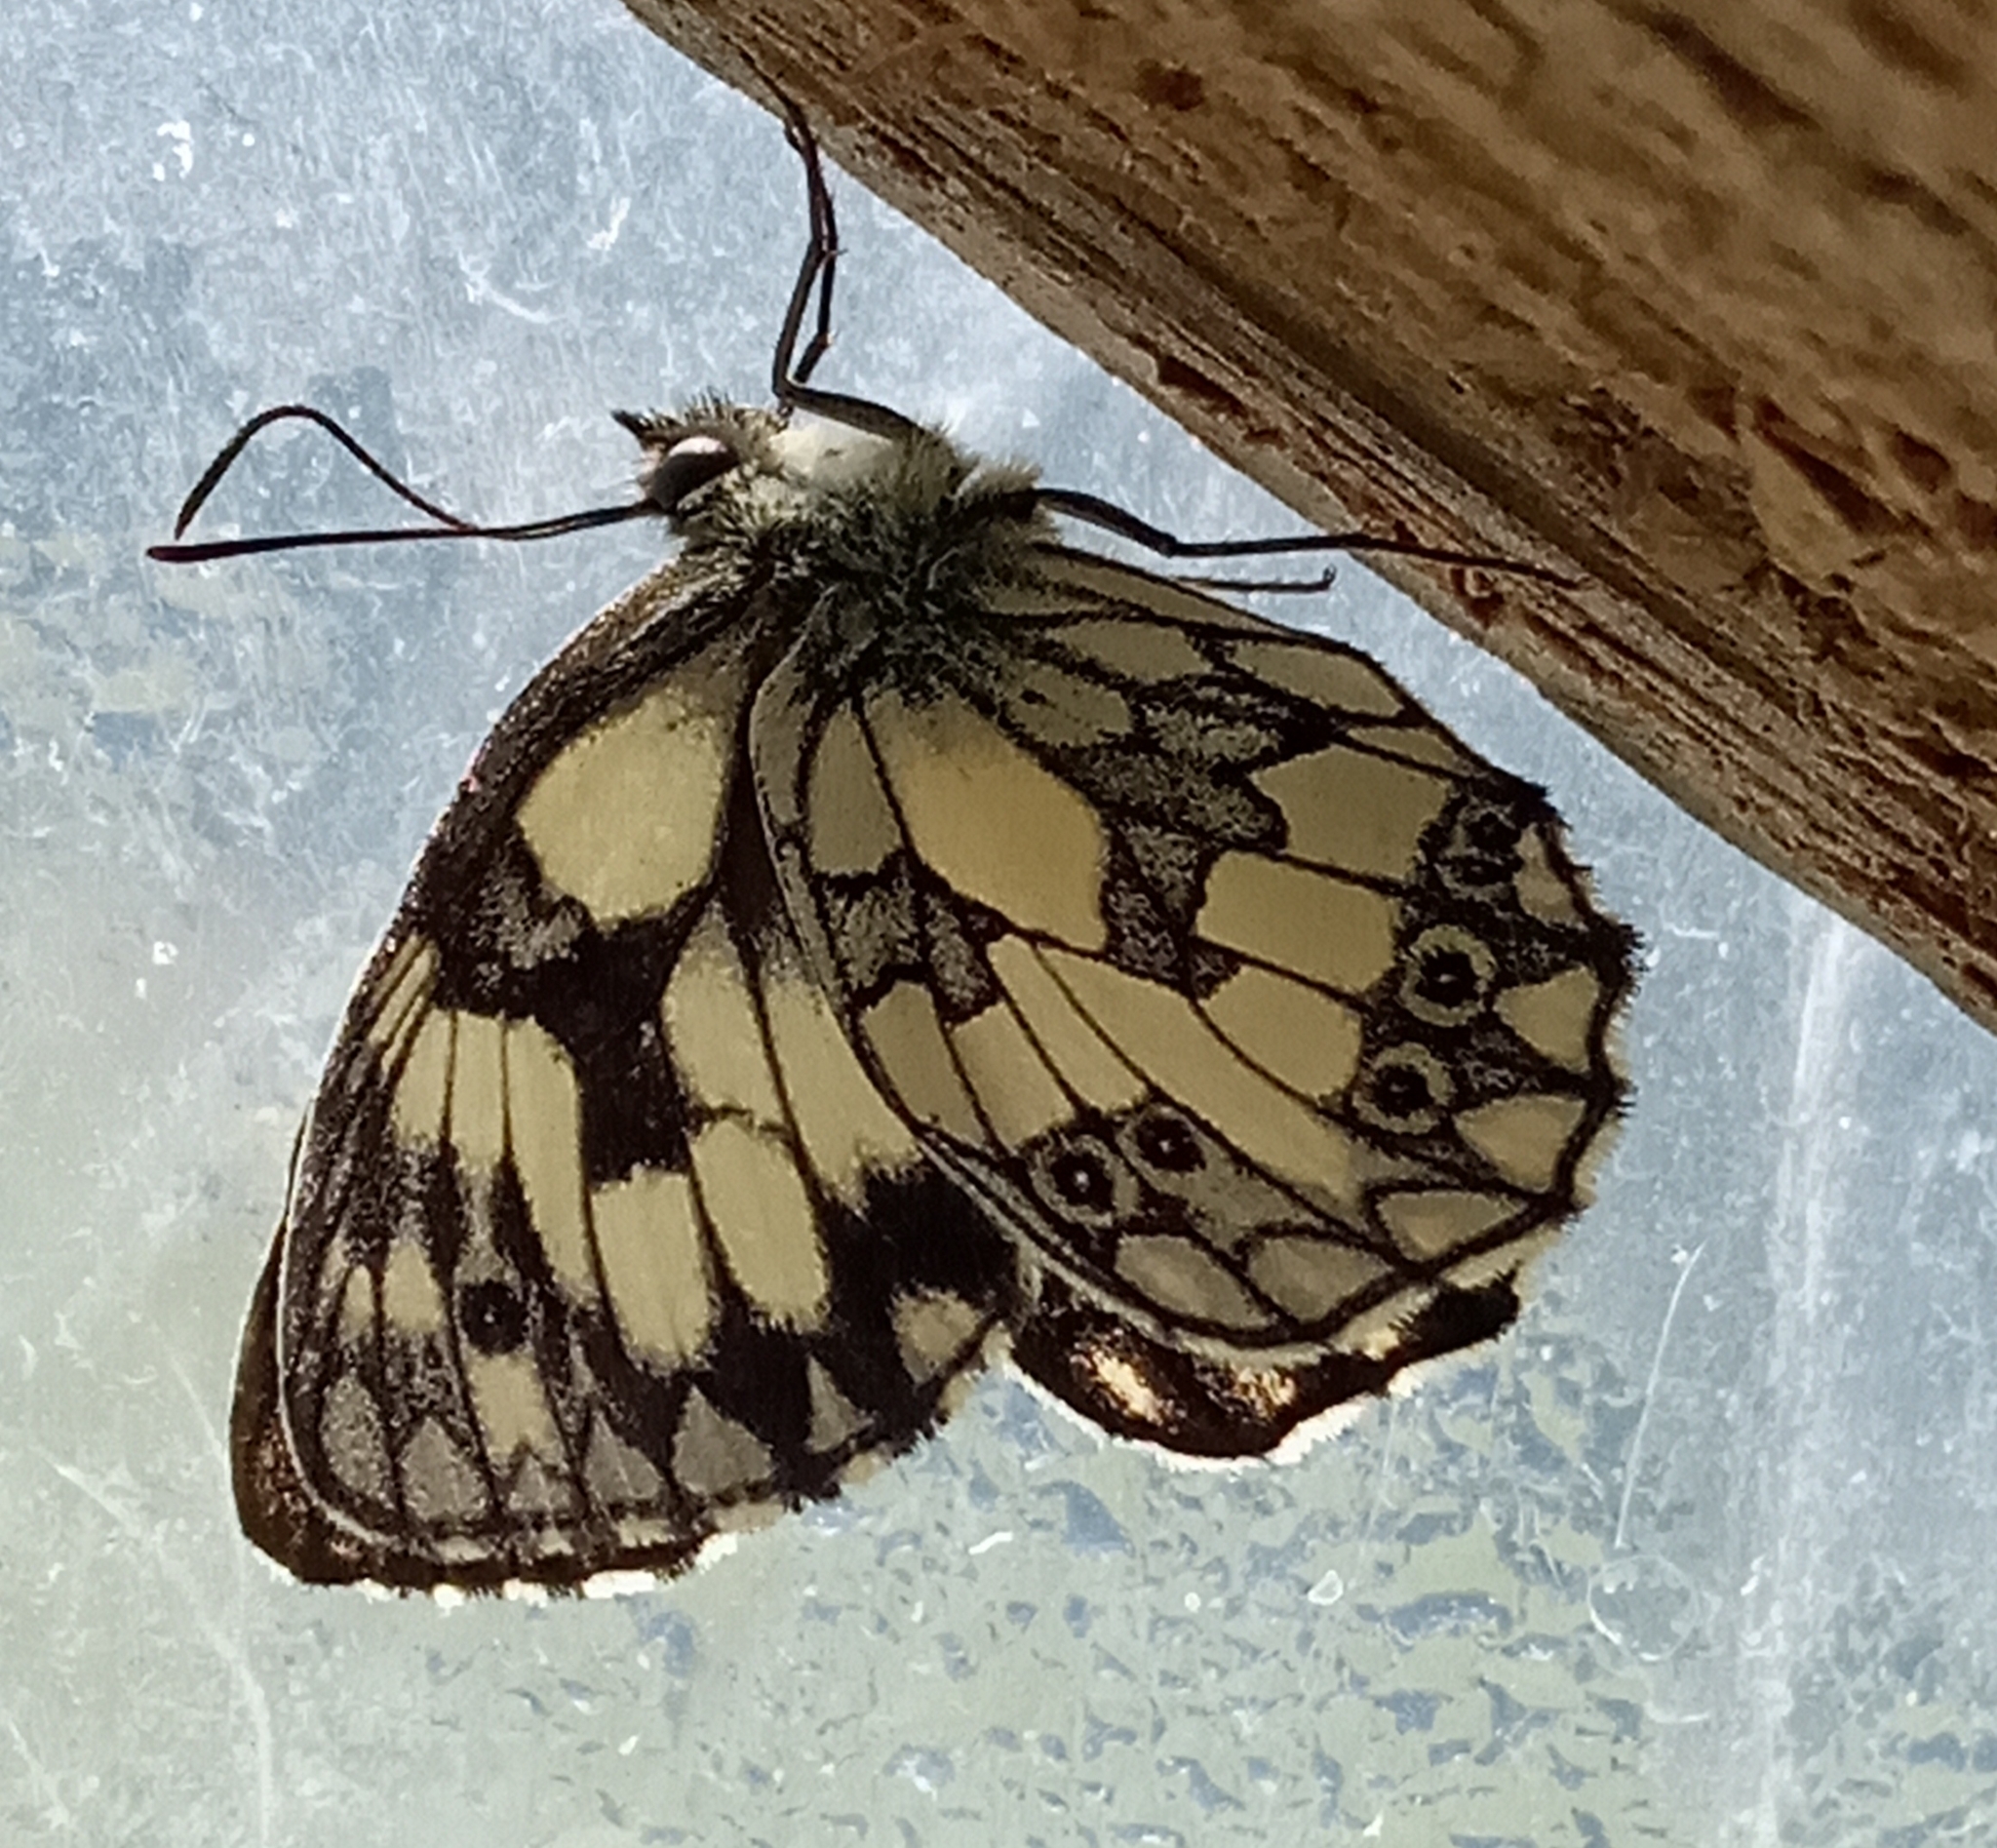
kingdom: Animalia
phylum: Arthropoda
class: Insecta
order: Lepidoptera
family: Nymphalidae
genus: Melanargia
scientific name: Melanargia galathea
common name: Marbled white
